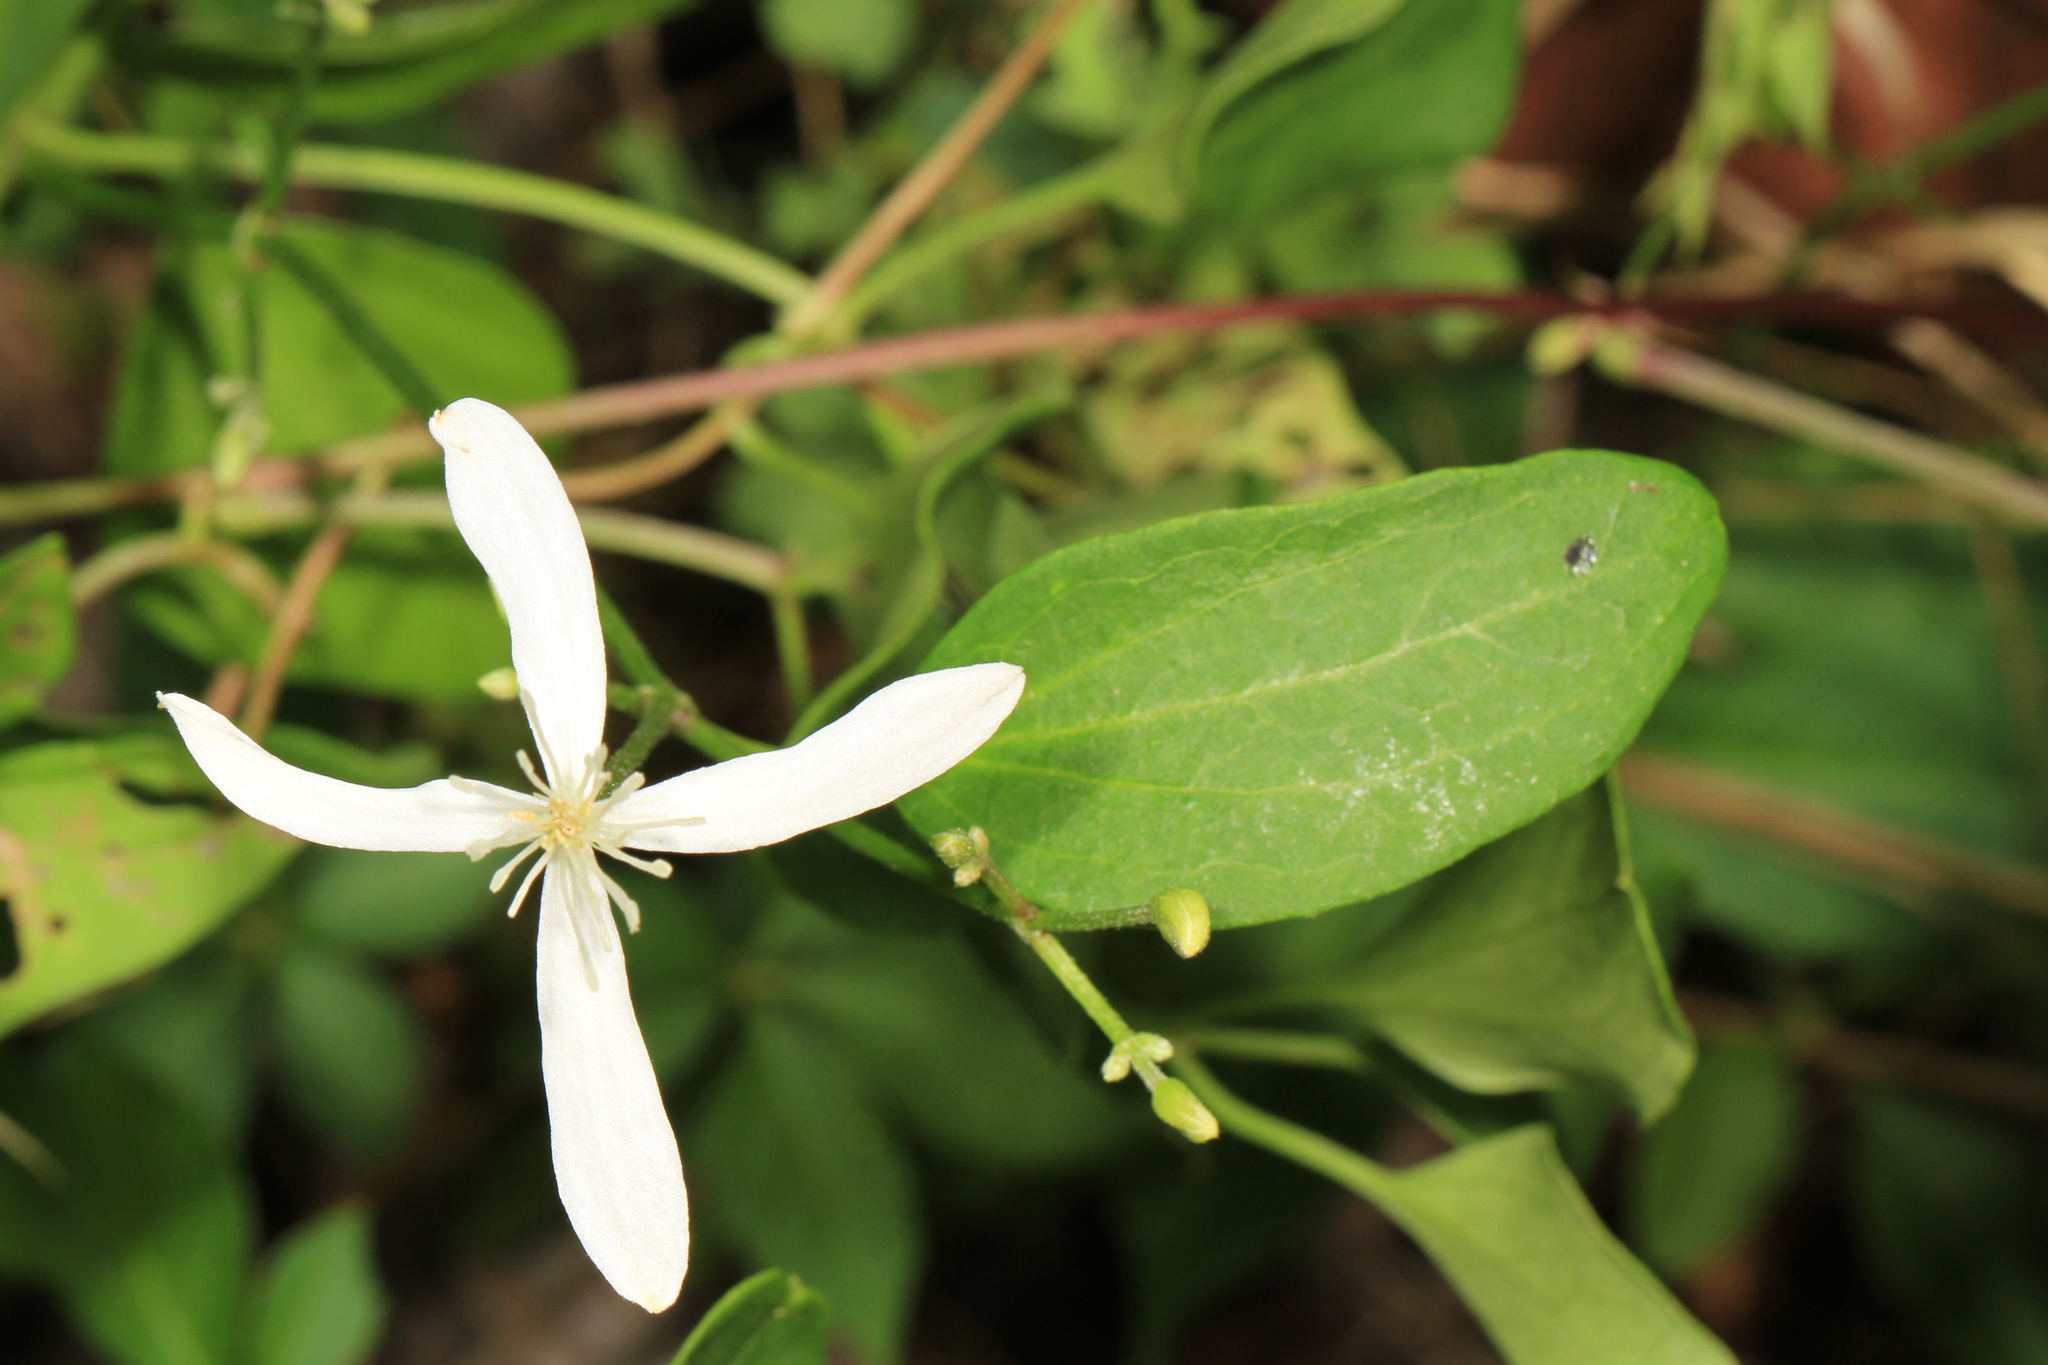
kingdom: Plantae
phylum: Tracheophyta
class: Magnoliopsida
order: Ranunculales
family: Ranunculaceae
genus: Clematis
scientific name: Clematis terniflora
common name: Sweet autumn clematis
